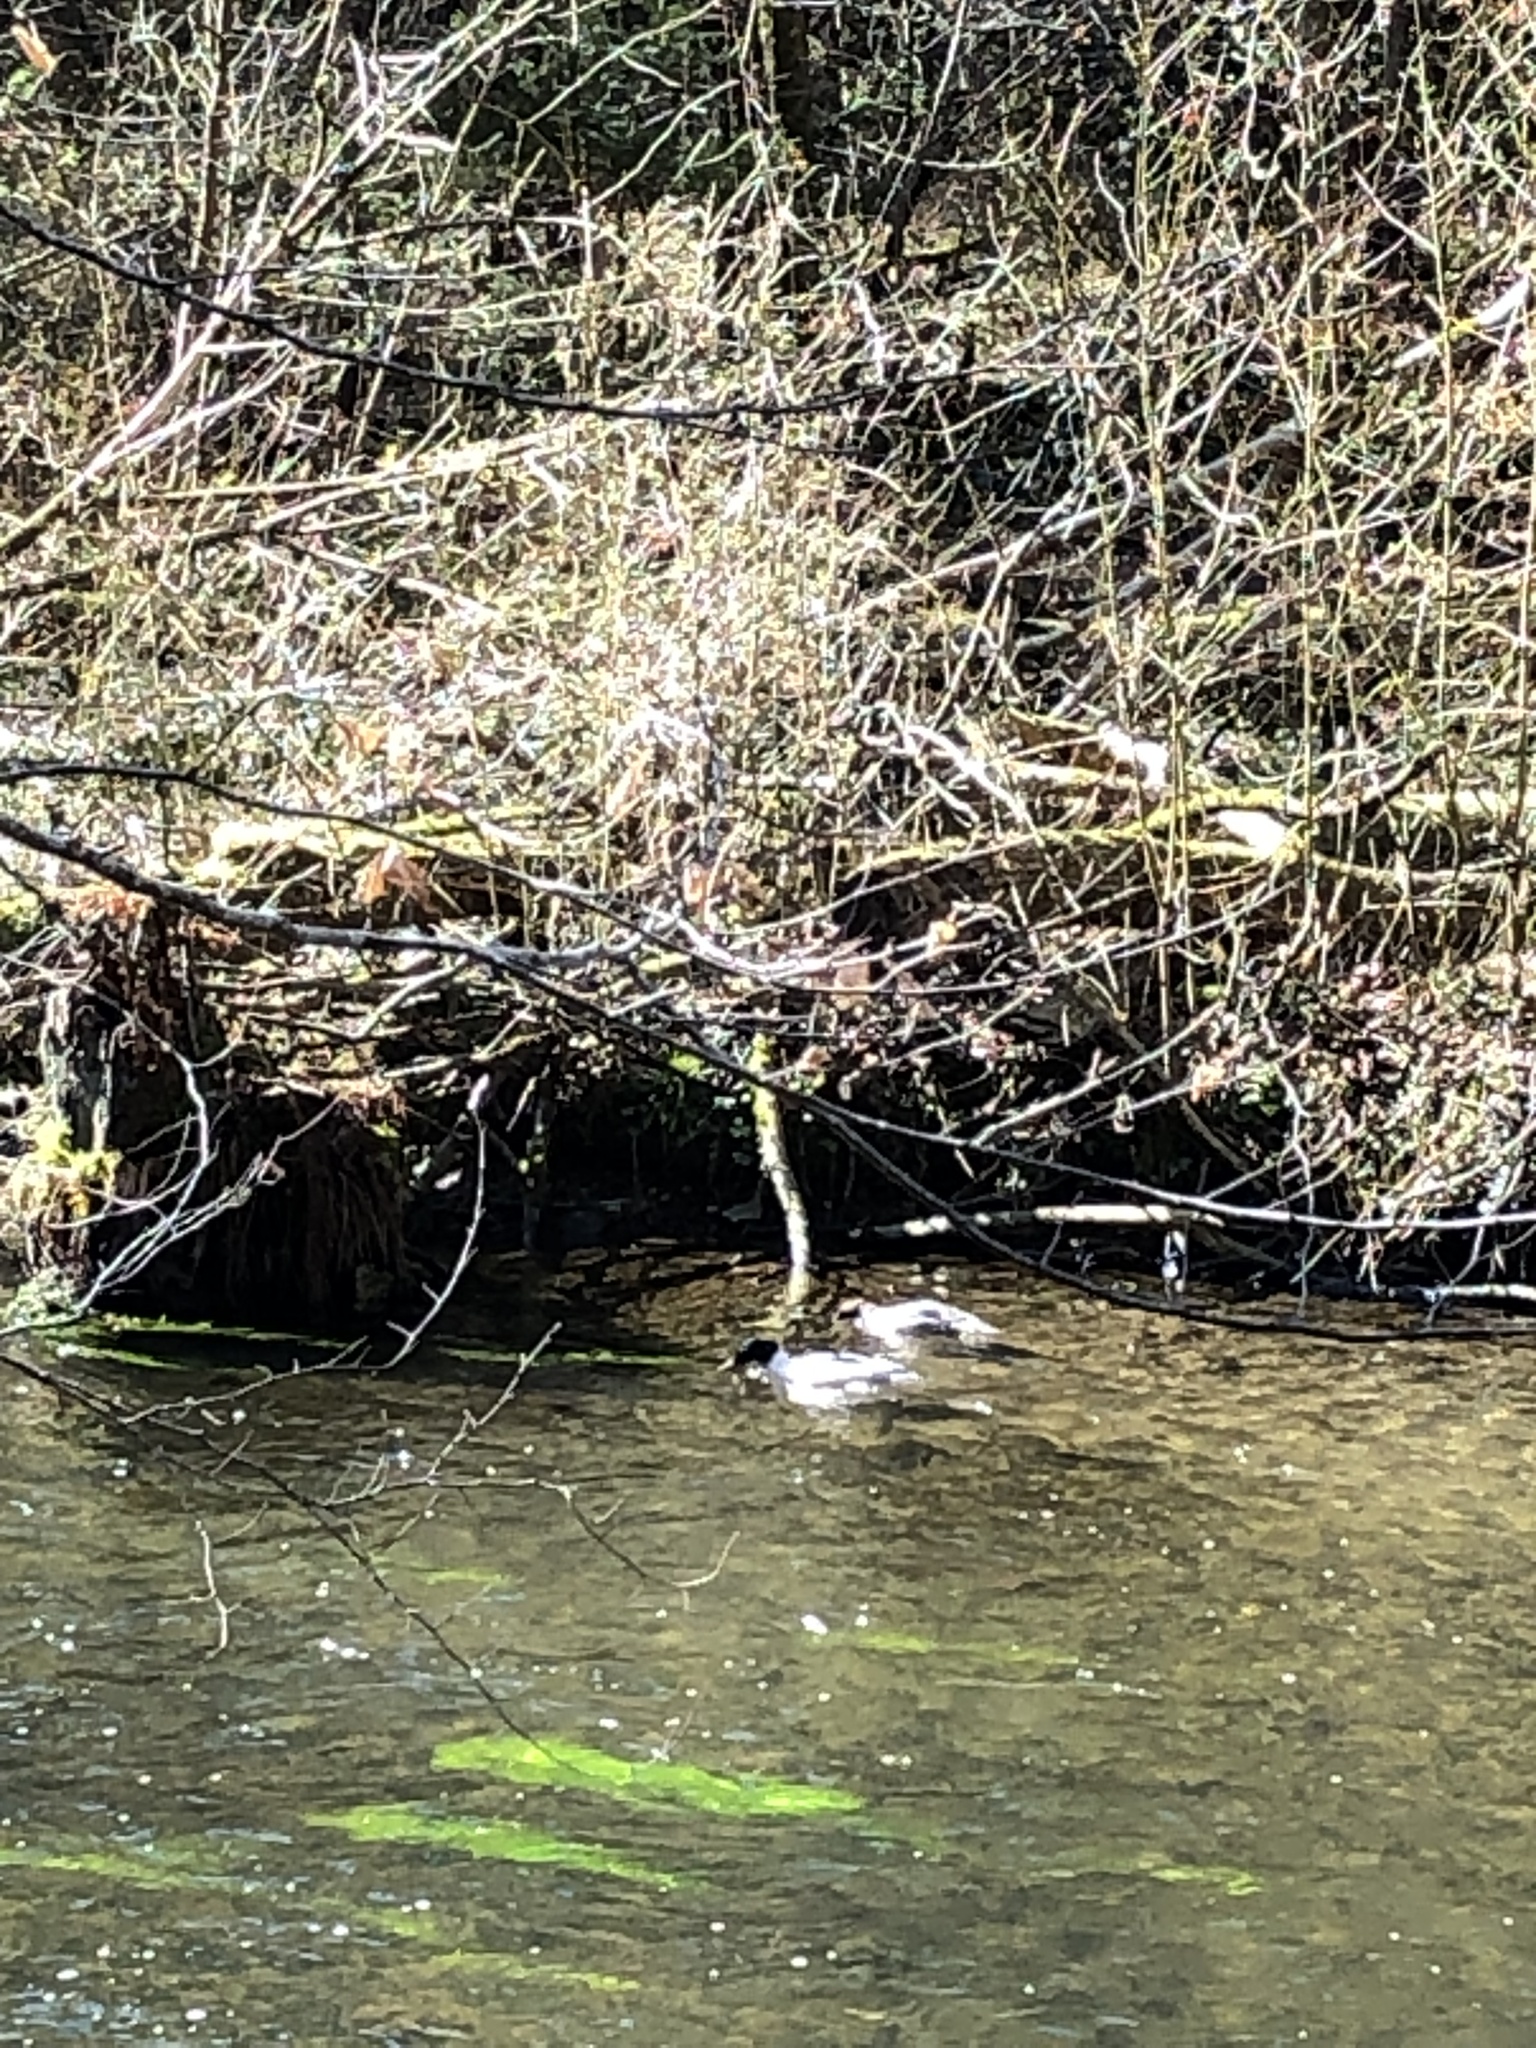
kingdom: Animalia
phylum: Chordata
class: Aves
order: Anseriformes
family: Anatidae
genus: Mergus
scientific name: Mergus merganser
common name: Common merganser
